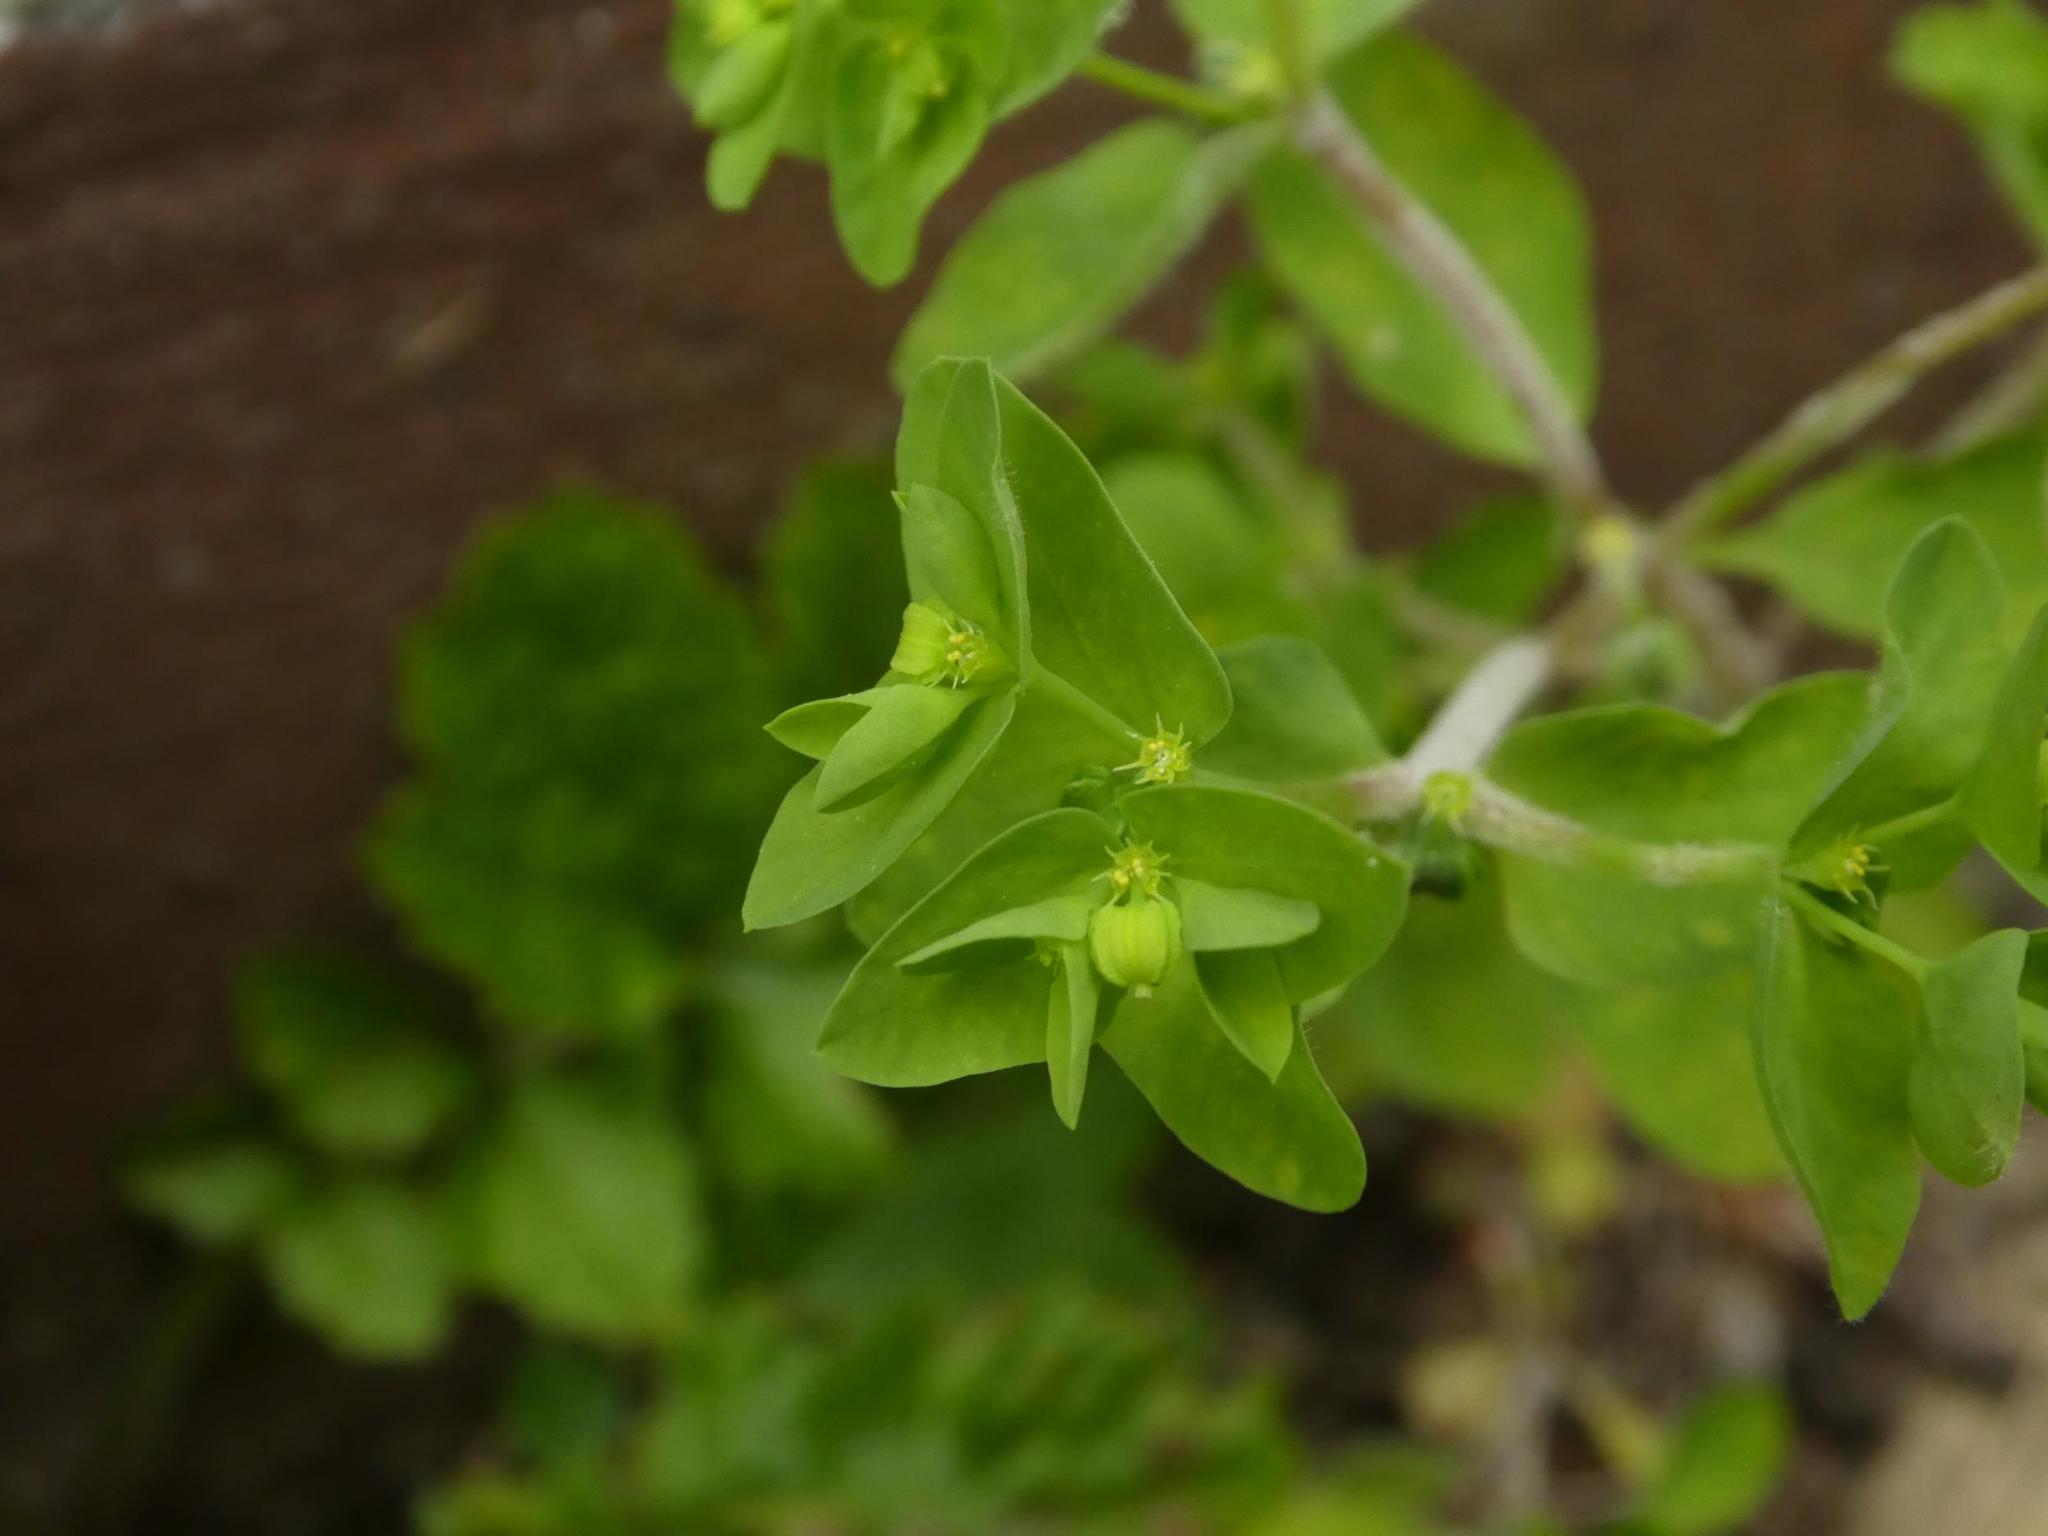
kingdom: Plantae
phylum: Tracheophyta
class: Magnoliopsida
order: Malpighiales
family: Euphorbiaceae
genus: Euphorbia
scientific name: Euphorbia peplus
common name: Petty spurge
